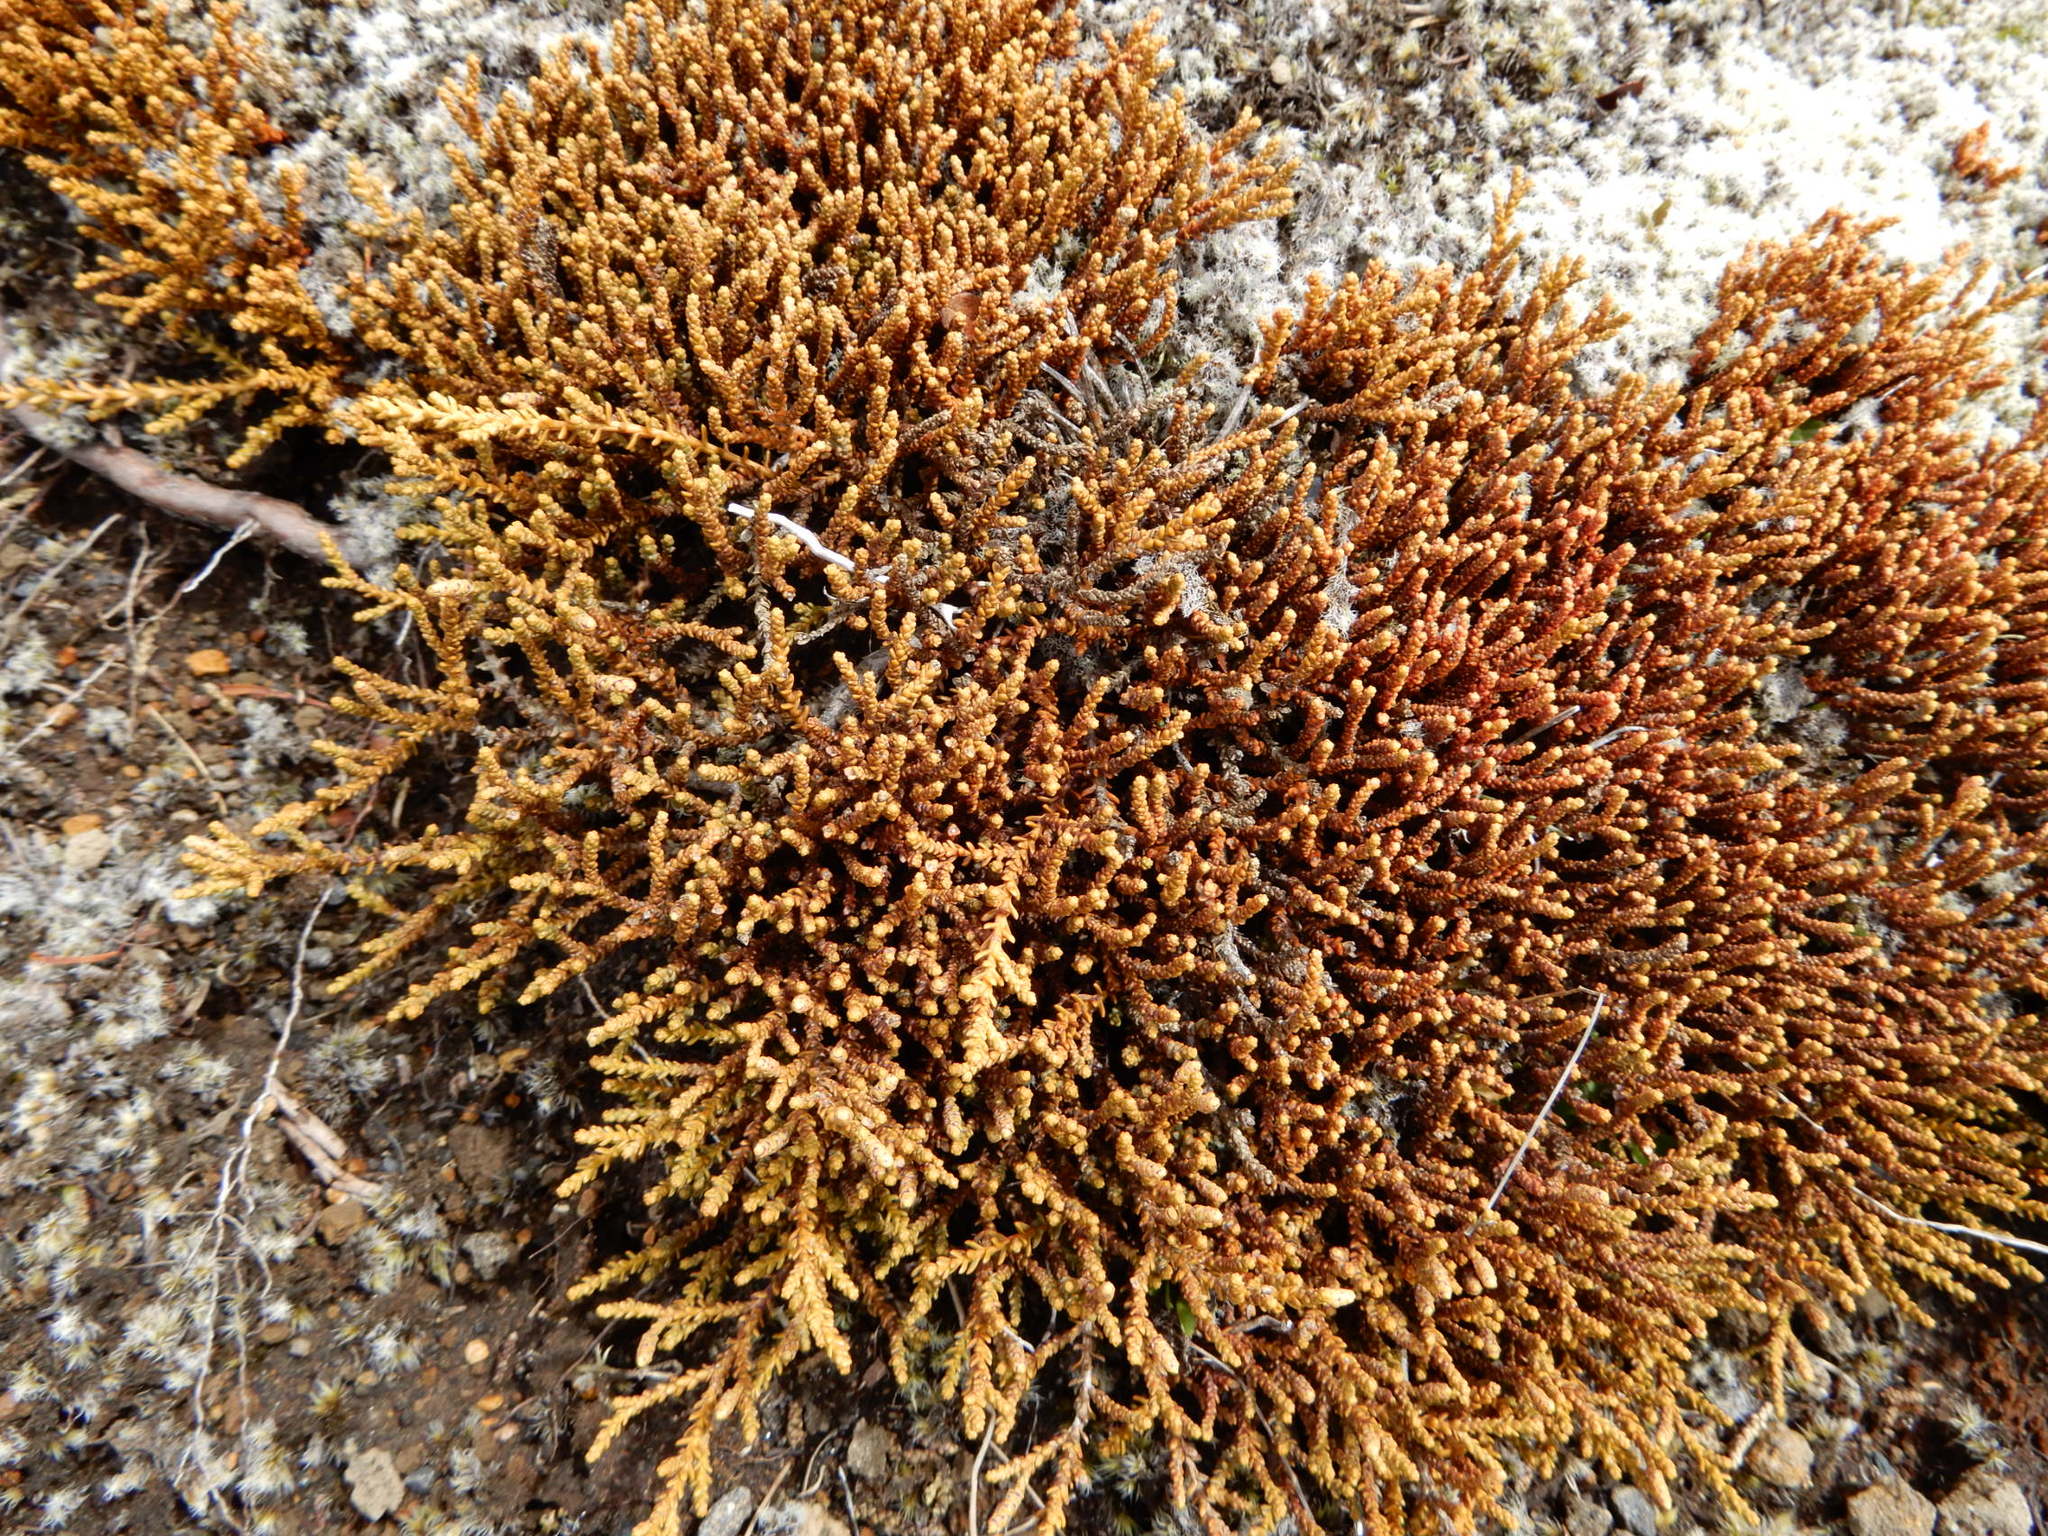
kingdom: Plantae
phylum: Tracheophyta
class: Pinopsida
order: Pinales
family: Podocarpaceae
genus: Lepidothamnus
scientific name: Lepidothamnus laxifolius
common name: Pygmy pine
